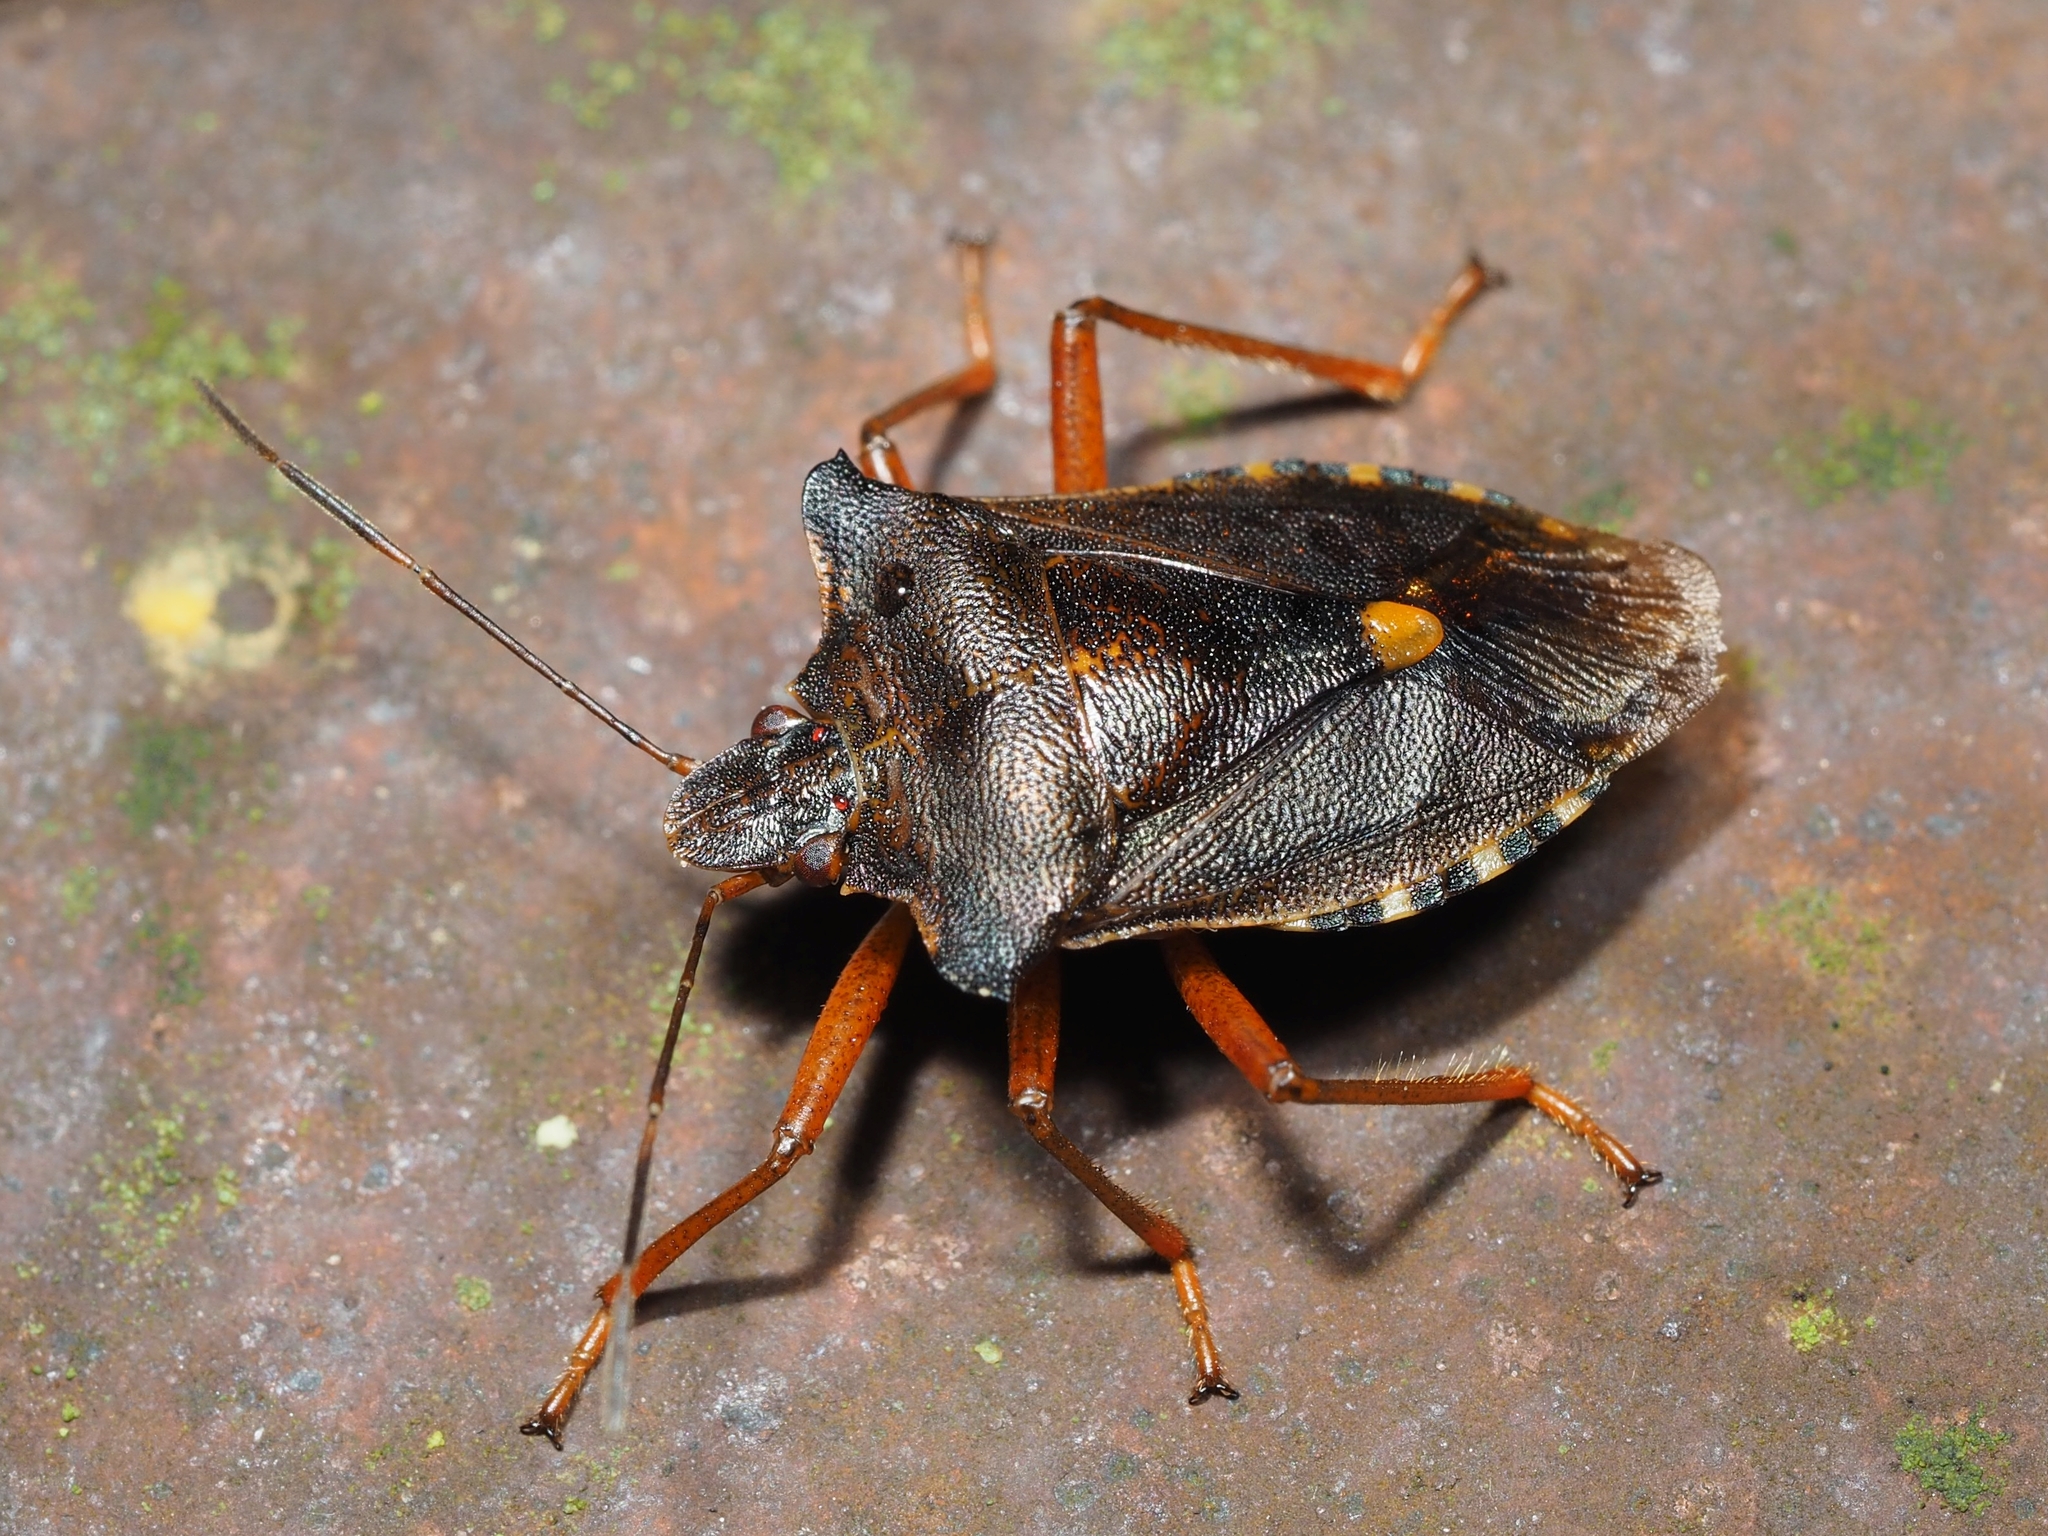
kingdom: Animalia
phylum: Arthropoda
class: Insecta
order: Hemiptera
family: Pentatomidae
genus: Pentatoma
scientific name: Pentatoma rufipes
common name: Forest bug
